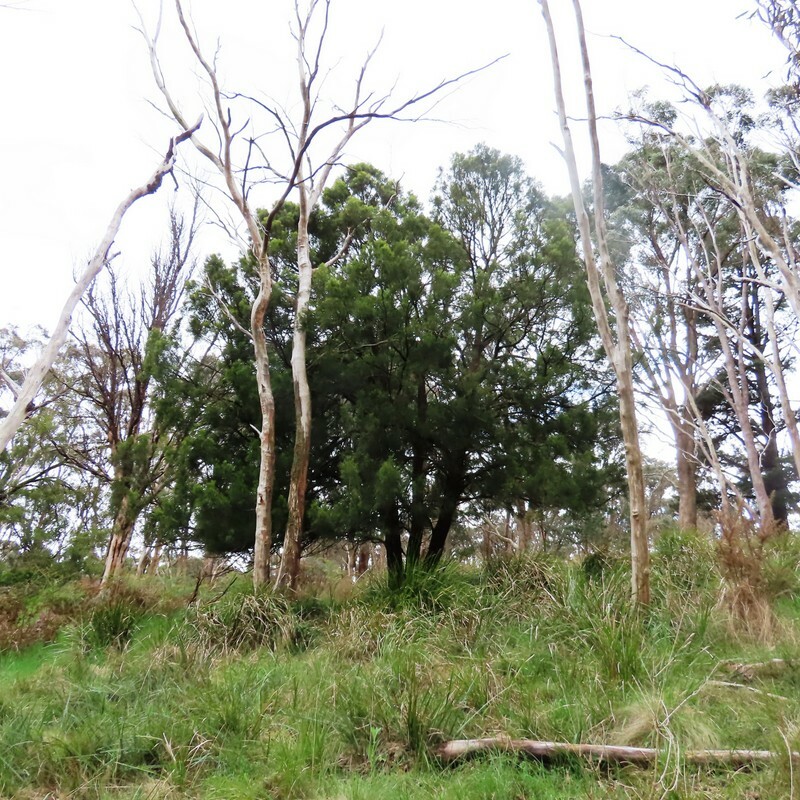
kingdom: Plantae
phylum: Tracheophyta
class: Magnoliopsida
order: Santalales
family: Santalaceae
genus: Exocarpos
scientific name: Exocarpos cupressiformis
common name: Cherry ballart
